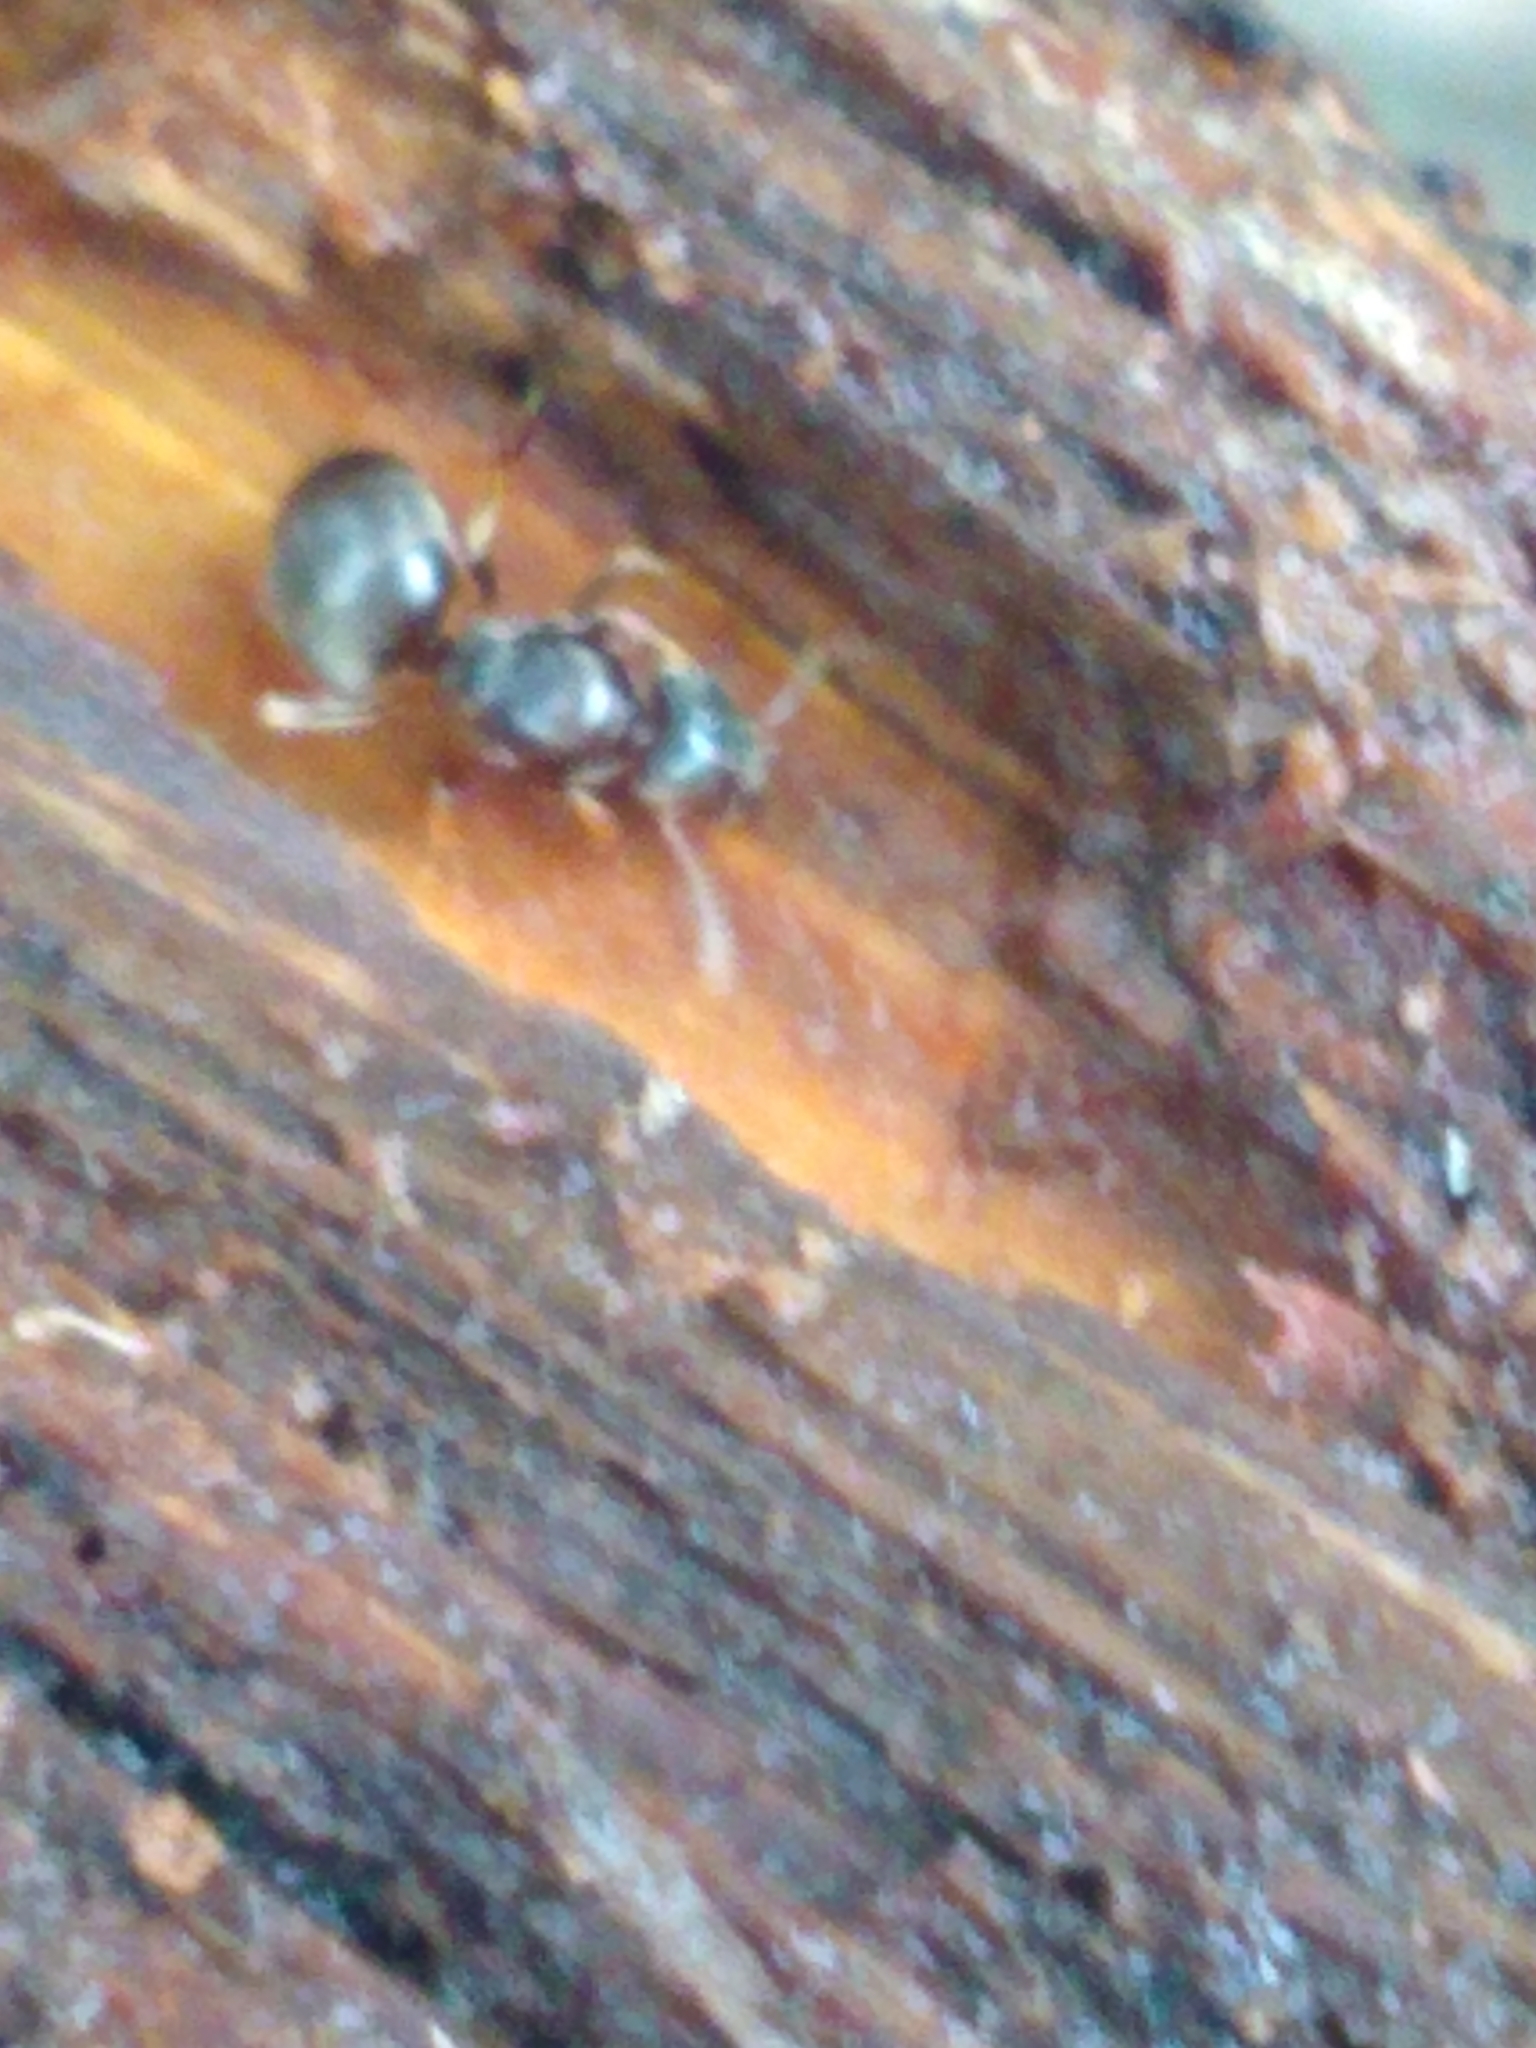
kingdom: Animalia
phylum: Arthropoda
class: Insecta
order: Hymenoptera
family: Formicidae
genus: Lasius
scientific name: Lasius aphidicola
